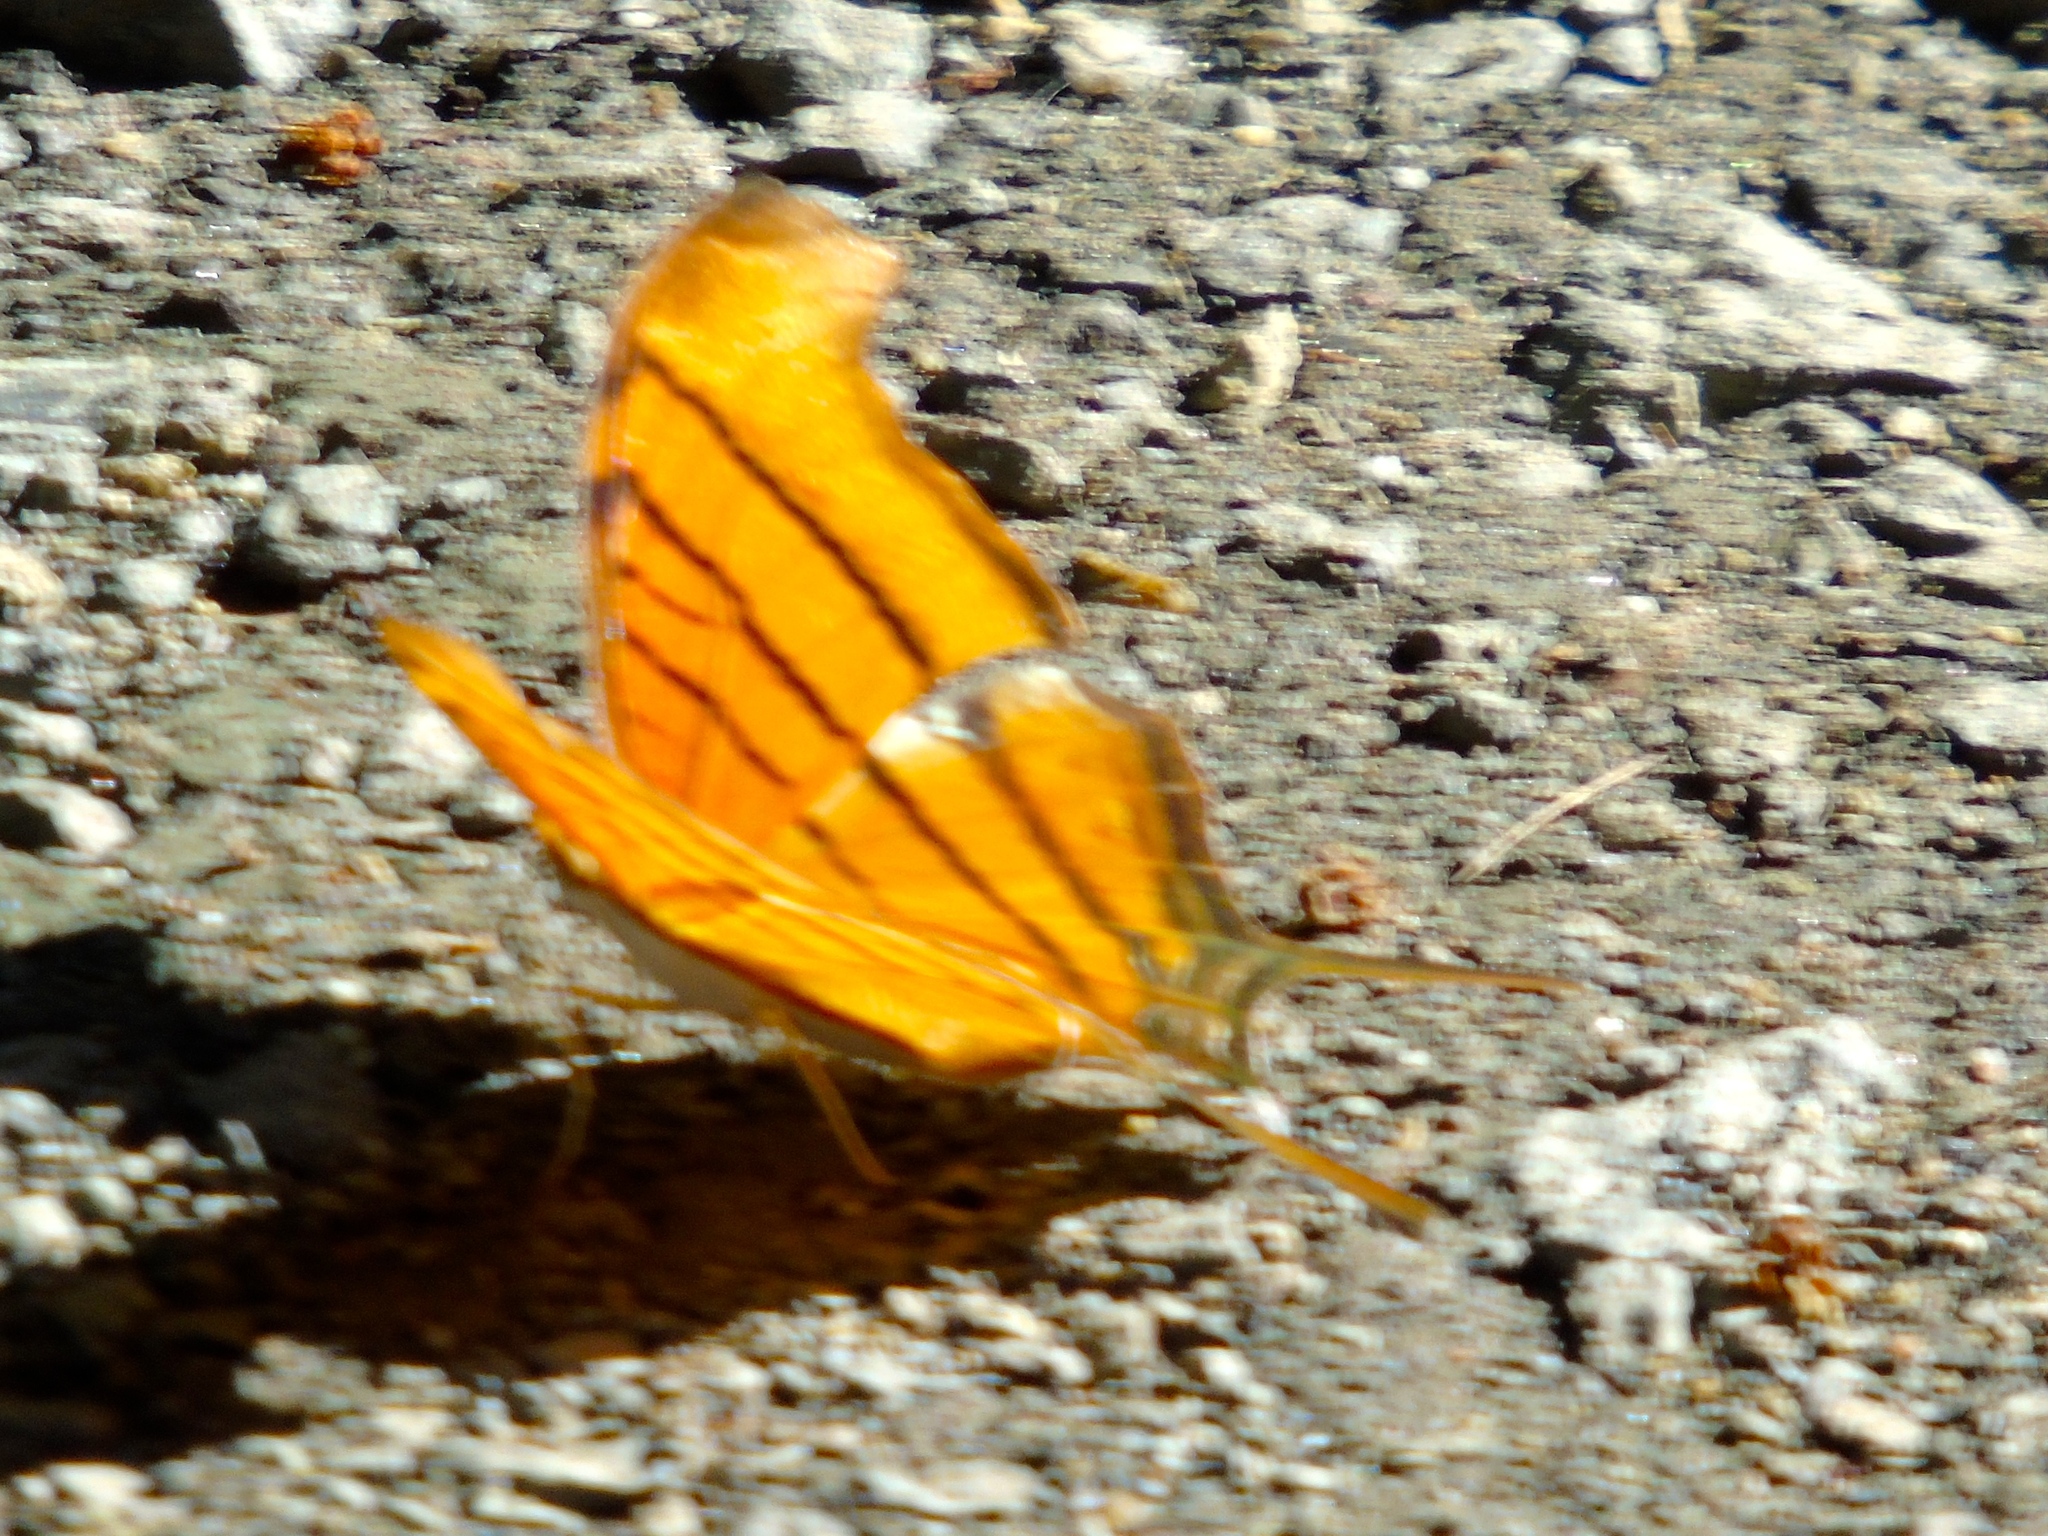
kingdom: Animalia
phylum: Arthropoda
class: Insecta
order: Lepidoptera
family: Nymphalidae
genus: Marpesia
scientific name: Marpesia petreus
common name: Red dagger wing
